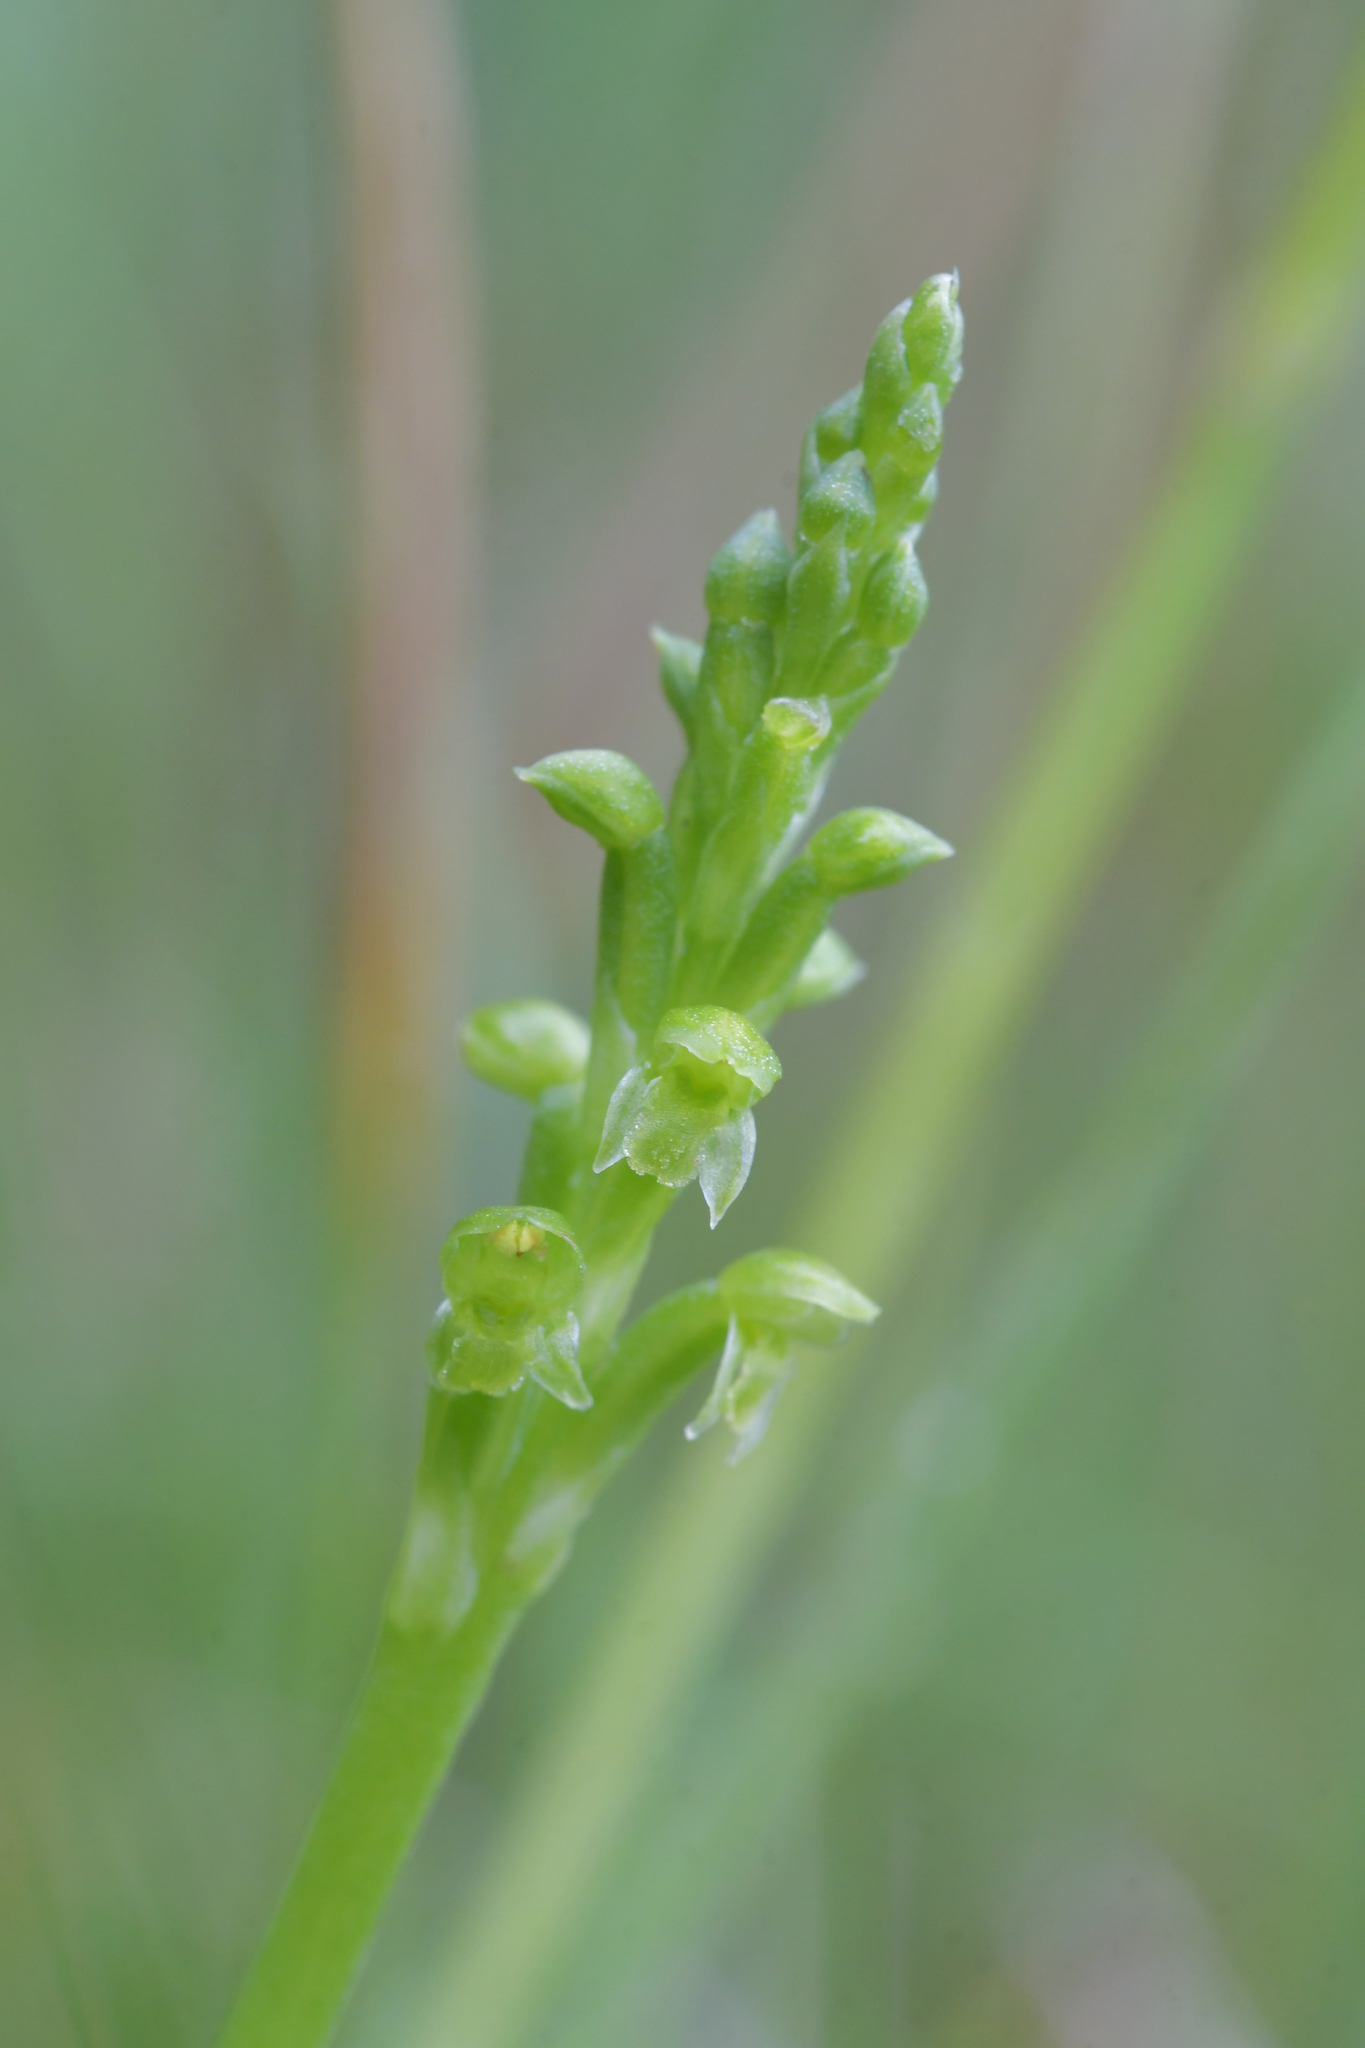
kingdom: Plantae
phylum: Tracheophyta
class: Liliopsida
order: Asparagales
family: Orchidaceae
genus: Microtis
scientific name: Microtis unifolia
